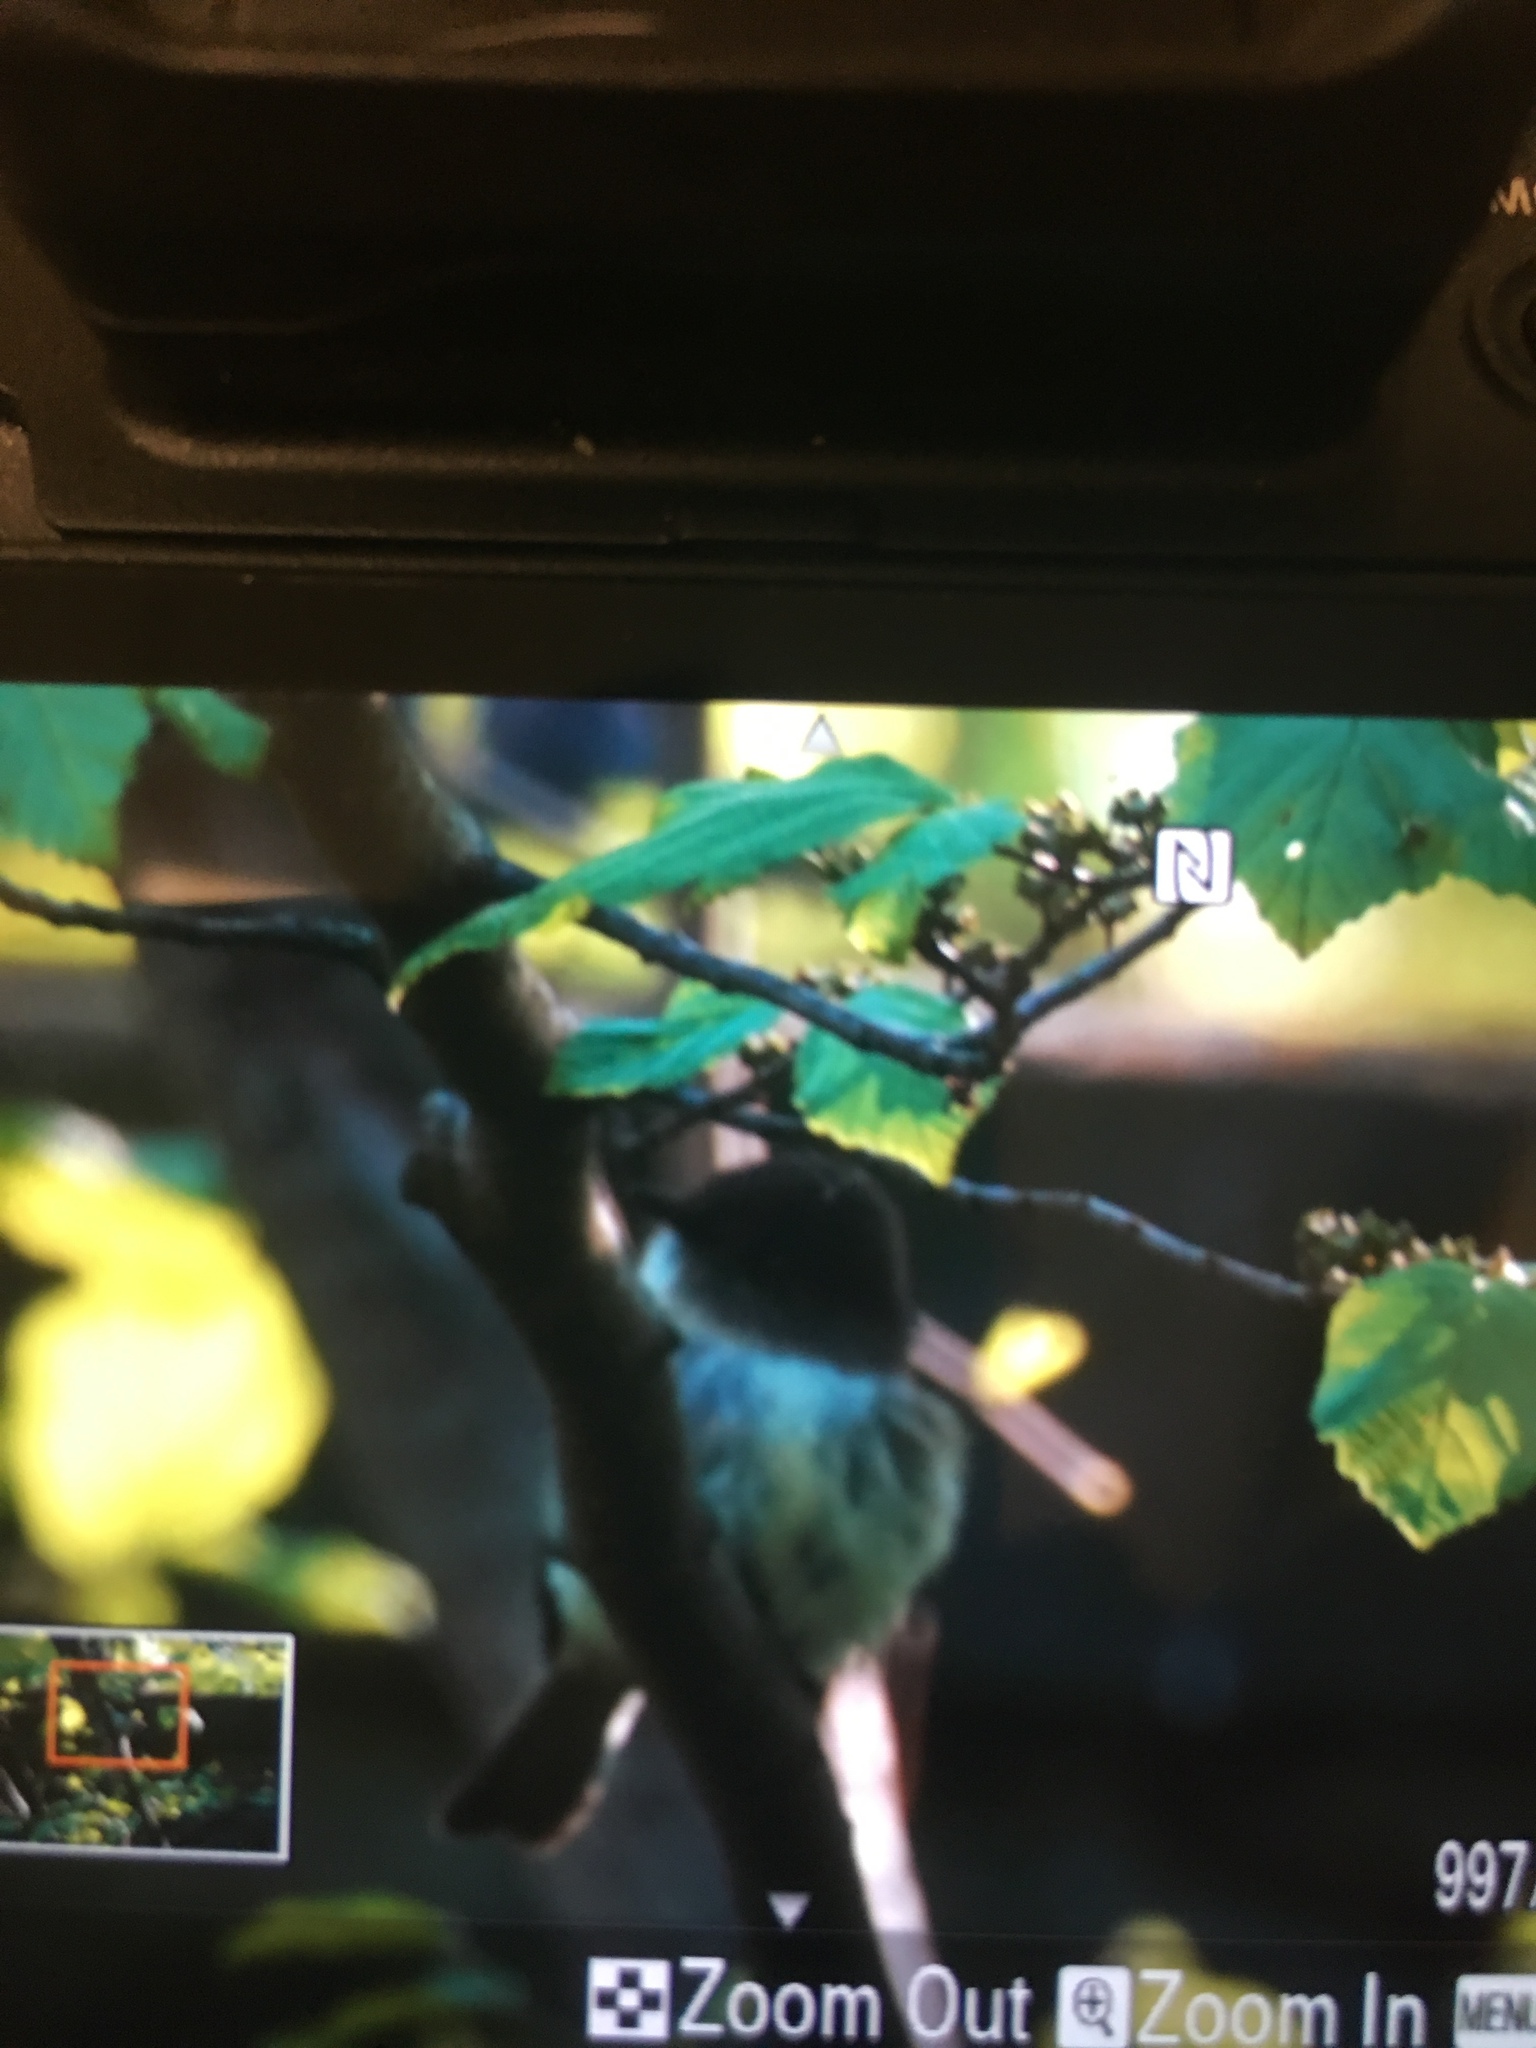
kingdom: Animalia
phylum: Chordata
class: Aves
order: Passeriformes
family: Tyrannidae
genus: Sayornis
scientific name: Sayornis phoebe
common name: Eastern phoebe
